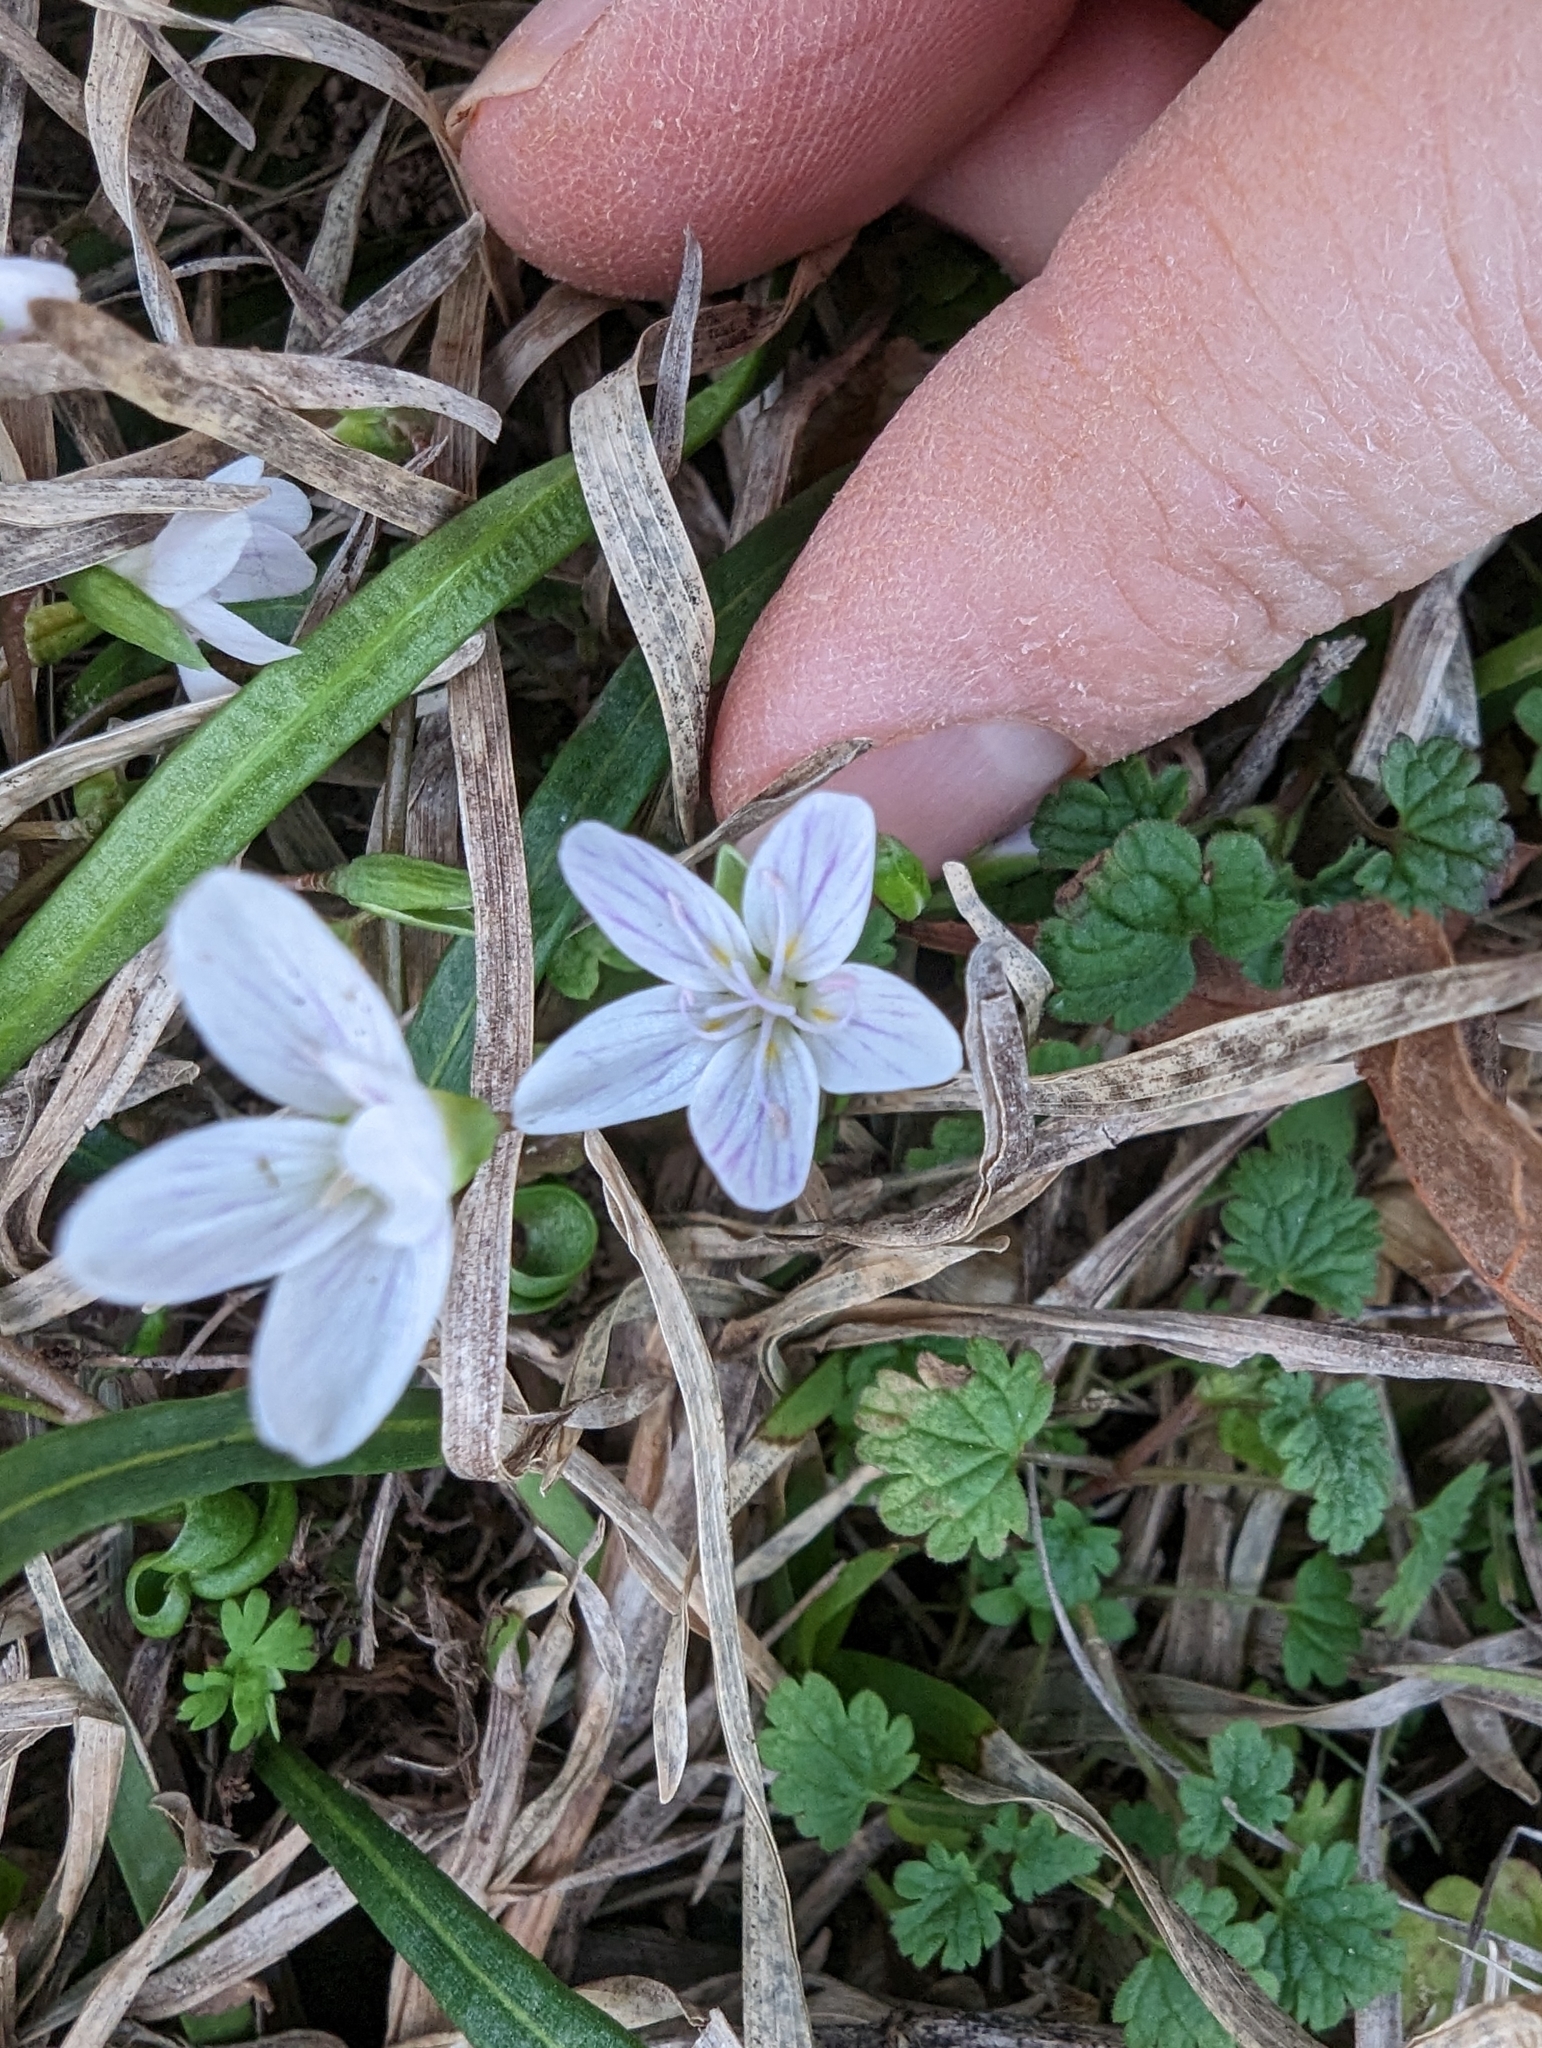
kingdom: Plantae
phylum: Tracheophyta
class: Magnoliopsida
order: Caryophyllales
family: Montiaceae
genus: Claytonia
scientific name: Claytonia virginica
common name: Virginia springbeauty
